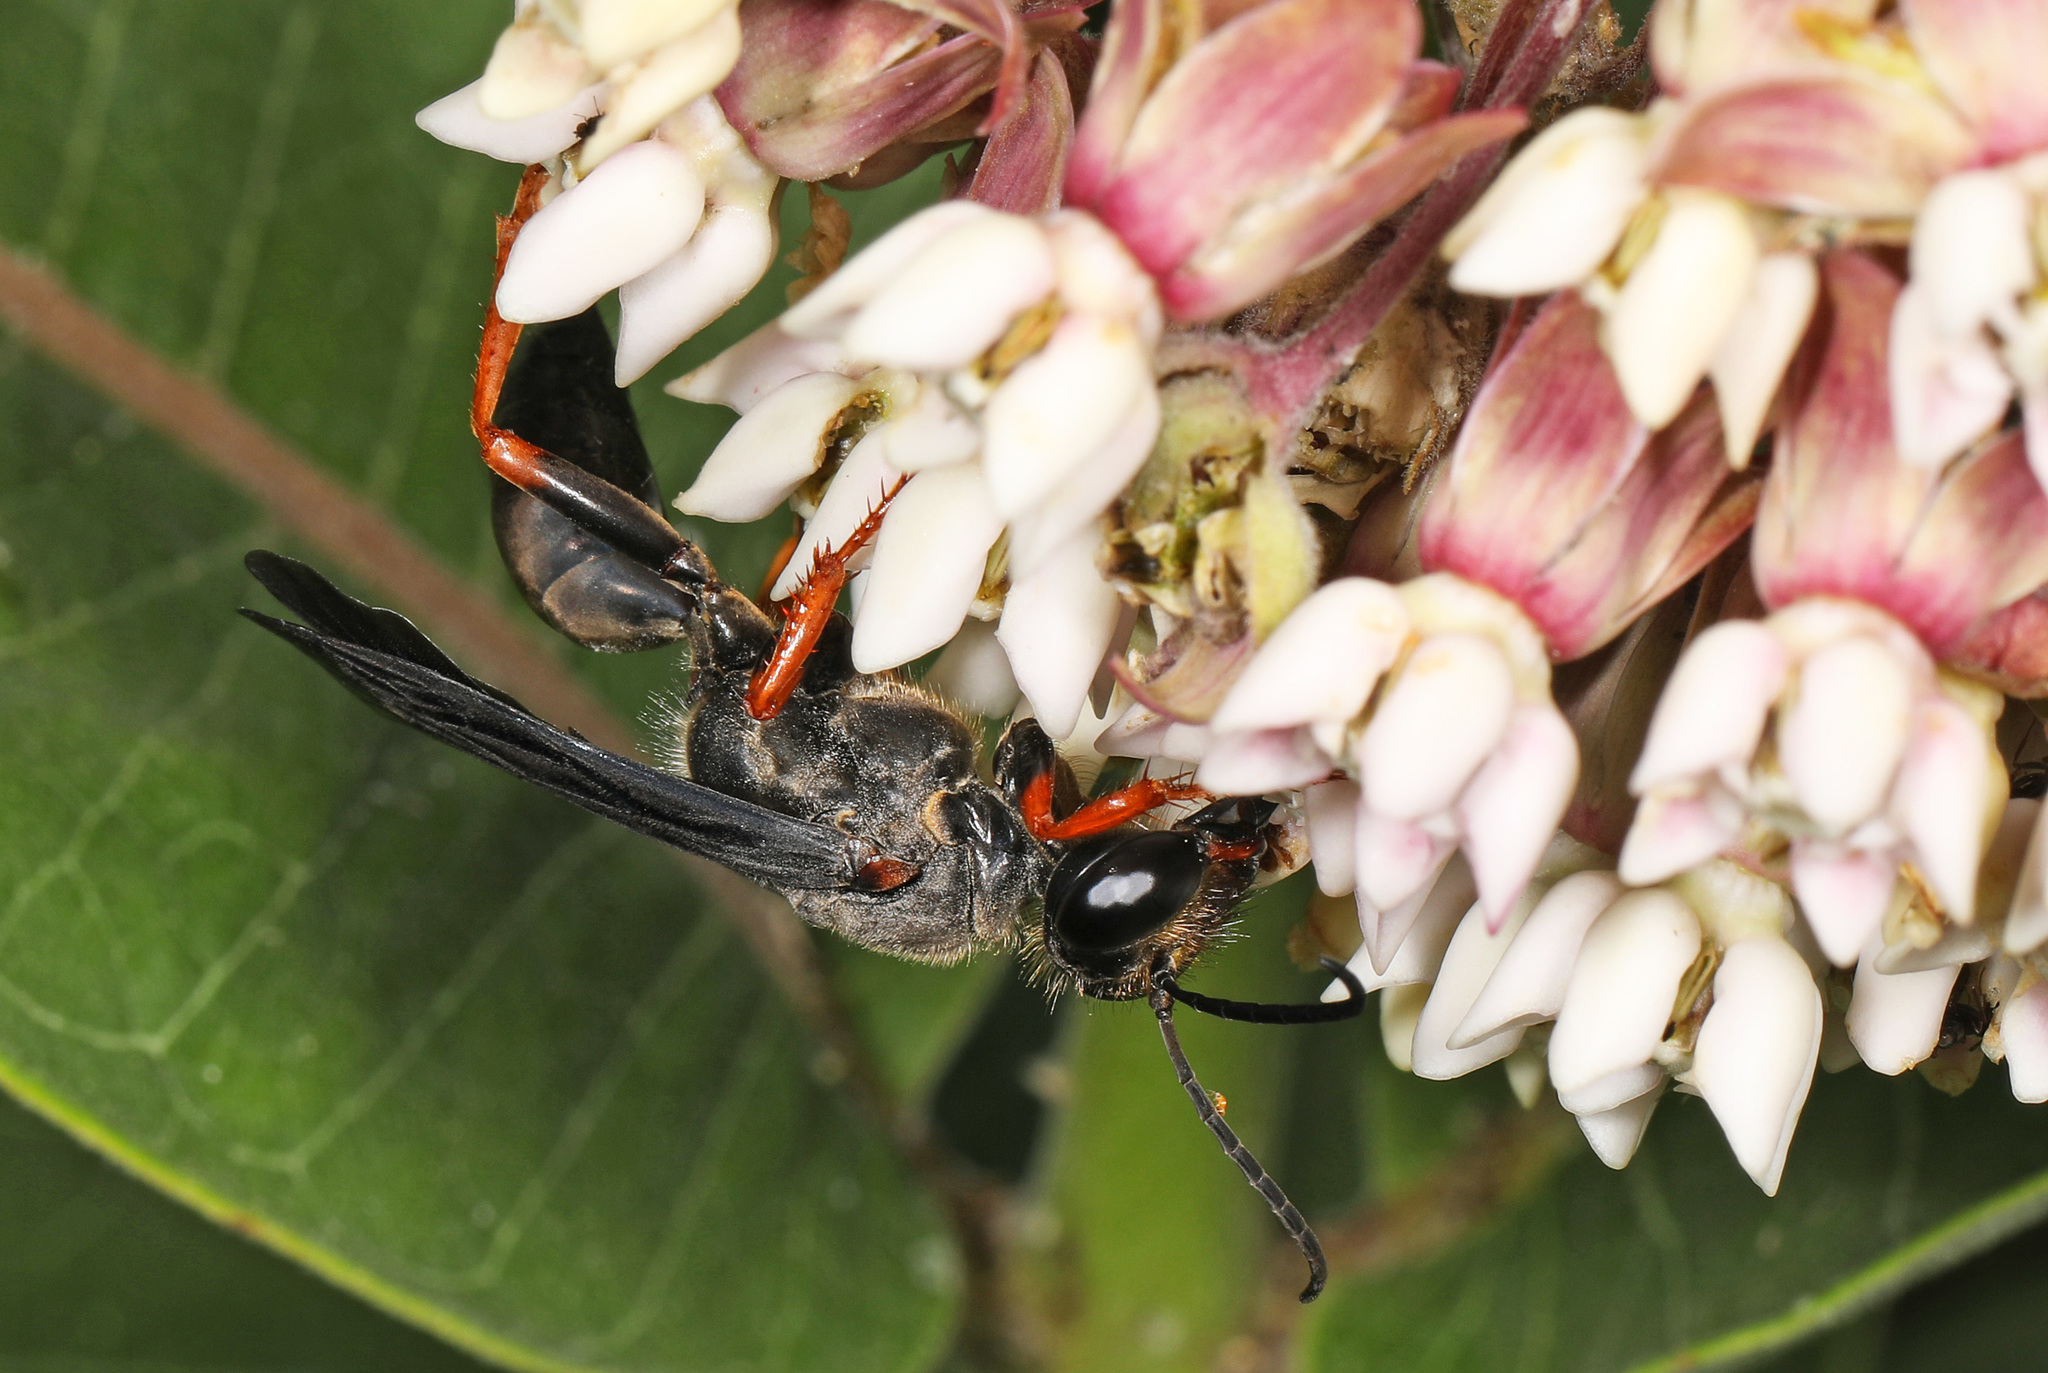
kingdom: Animalia
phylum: Arthropoda
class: Insecta
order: Hymenoptera
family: Sphecidae
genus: Sphex
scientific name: Sphex nudus
